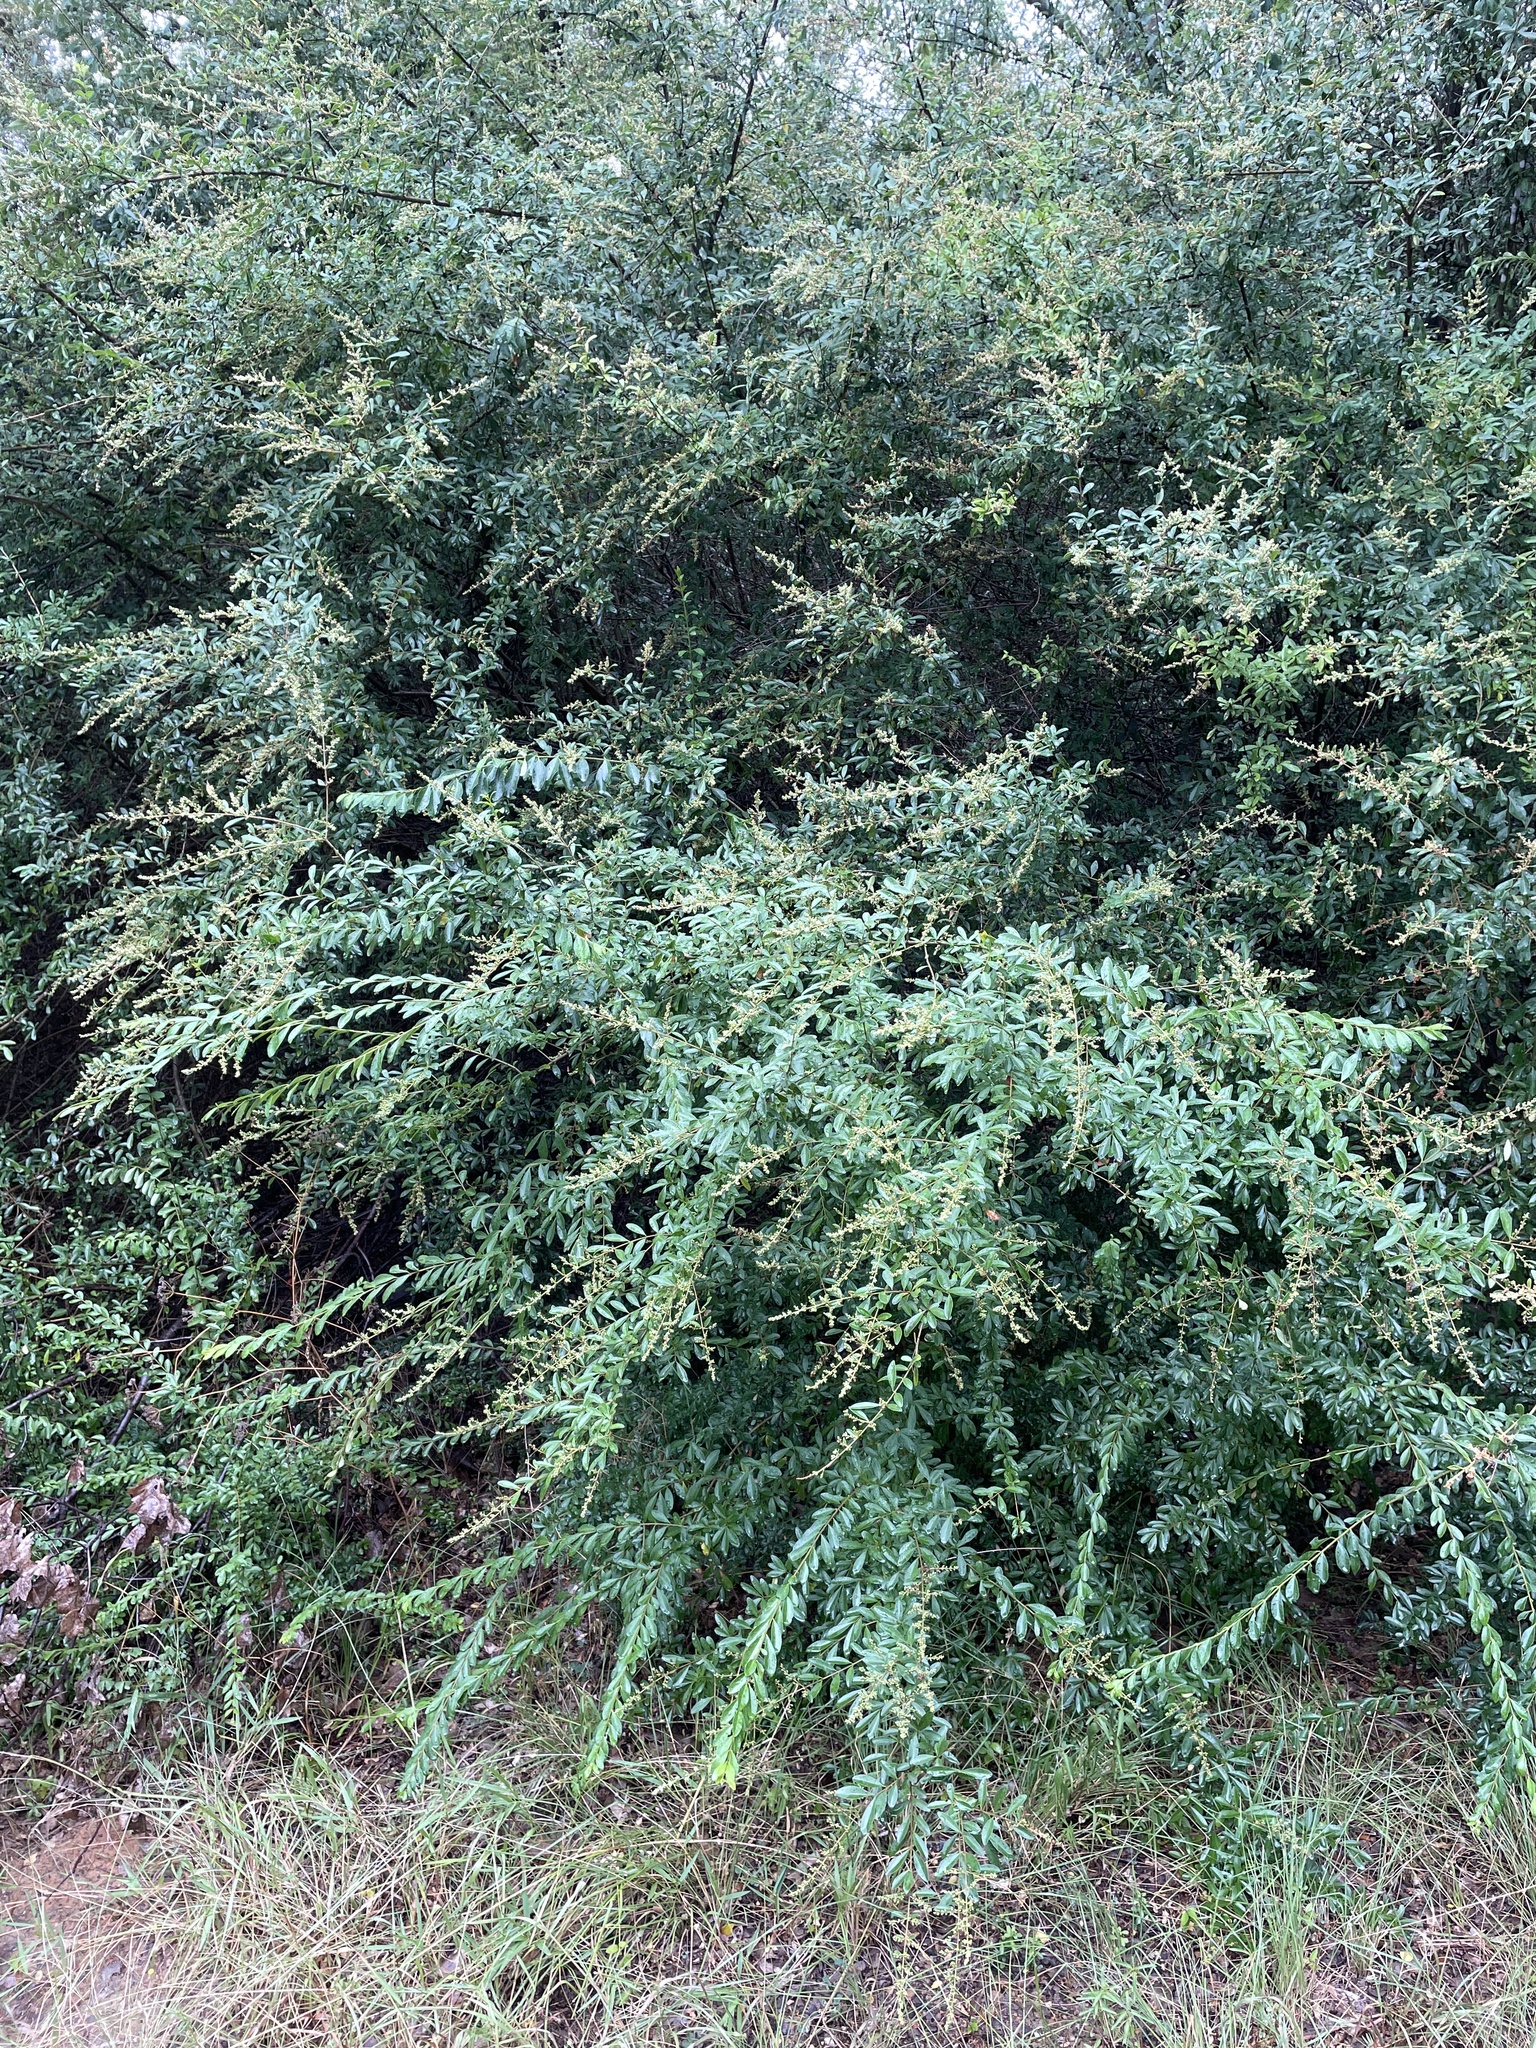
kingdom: Plantae
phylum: Tracheophyta
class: Magnoliopsida
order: Lamiales
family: Oleaceae
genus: Ligustrum
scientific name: Ligustrum quihoui
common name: Waxyleaf privet
